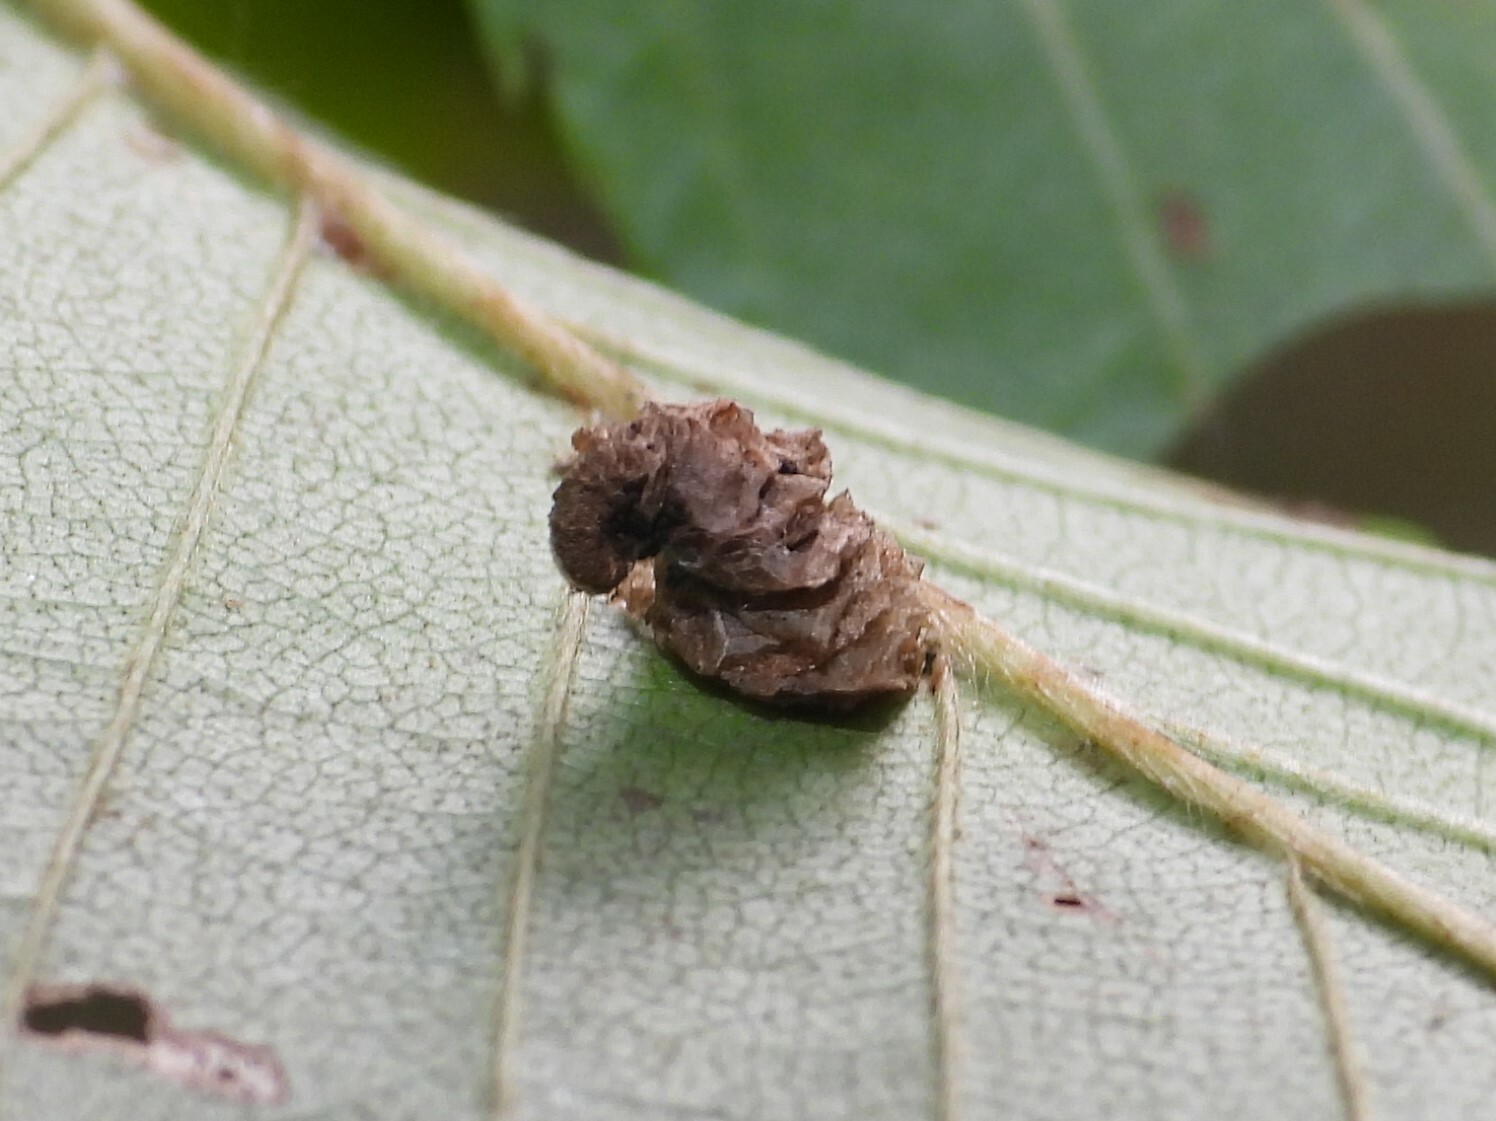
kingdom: Animalia
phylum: Arthropoda
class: Insecta
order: Lepidoptera
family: Coleophoridae
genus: Coleophora
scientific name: Coleophora persimplexella
